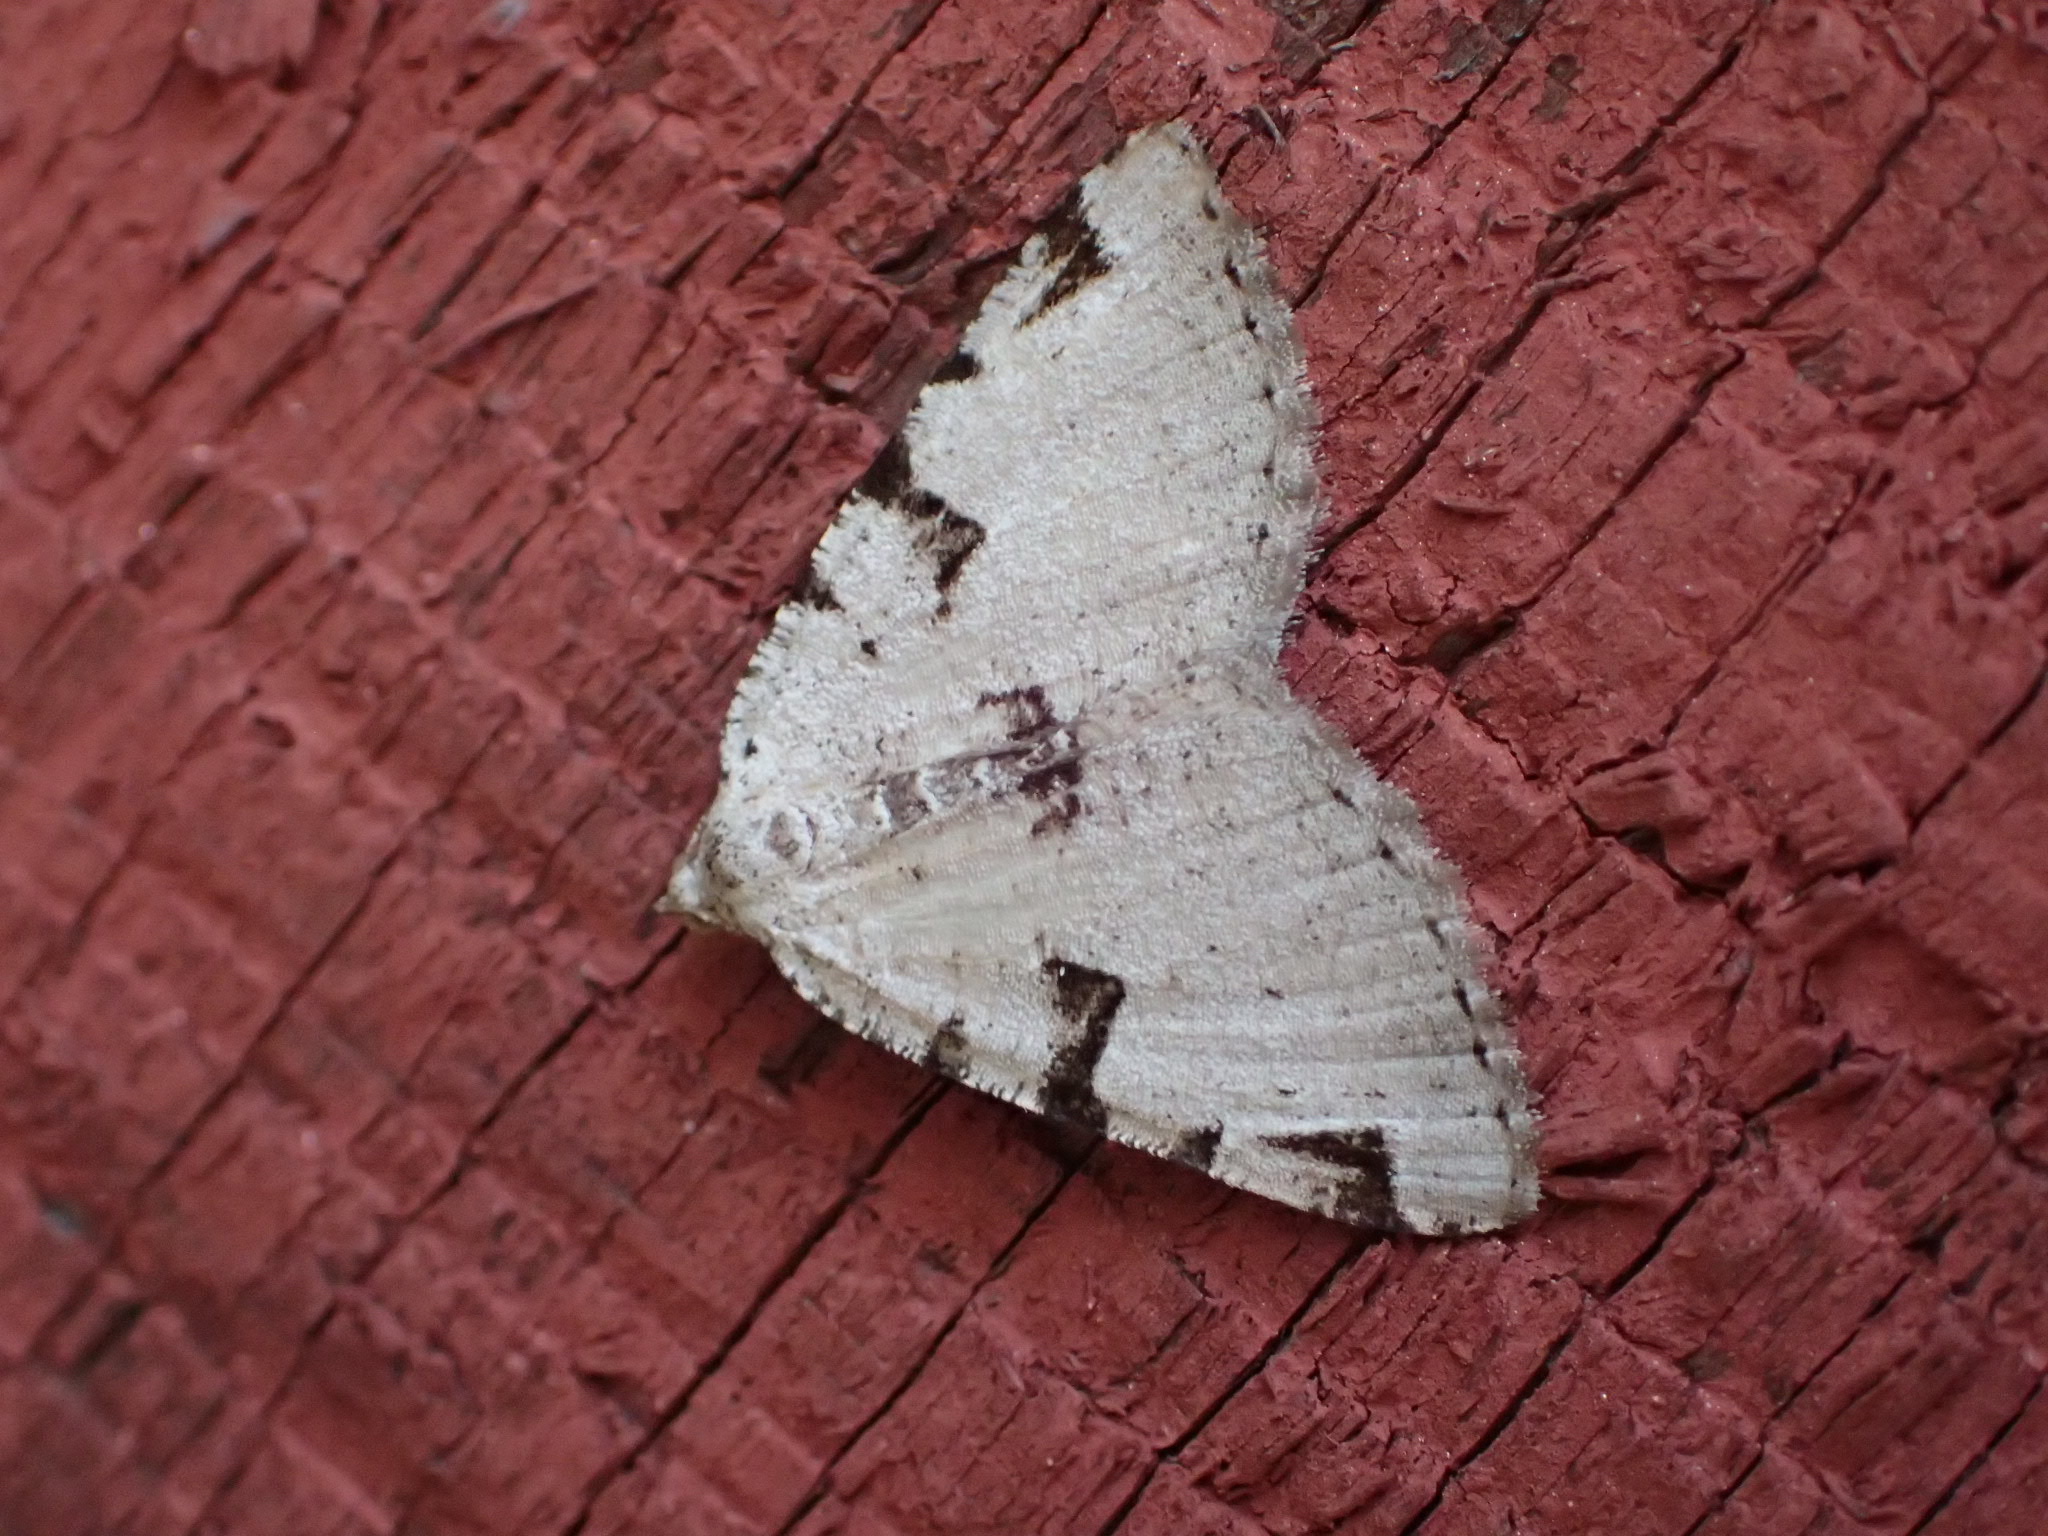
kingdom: Animalia
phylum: Arthropoda
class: Insecta
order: Lepidoptera
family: Geometridae
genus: Macaria
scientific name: Macaria bitactata
